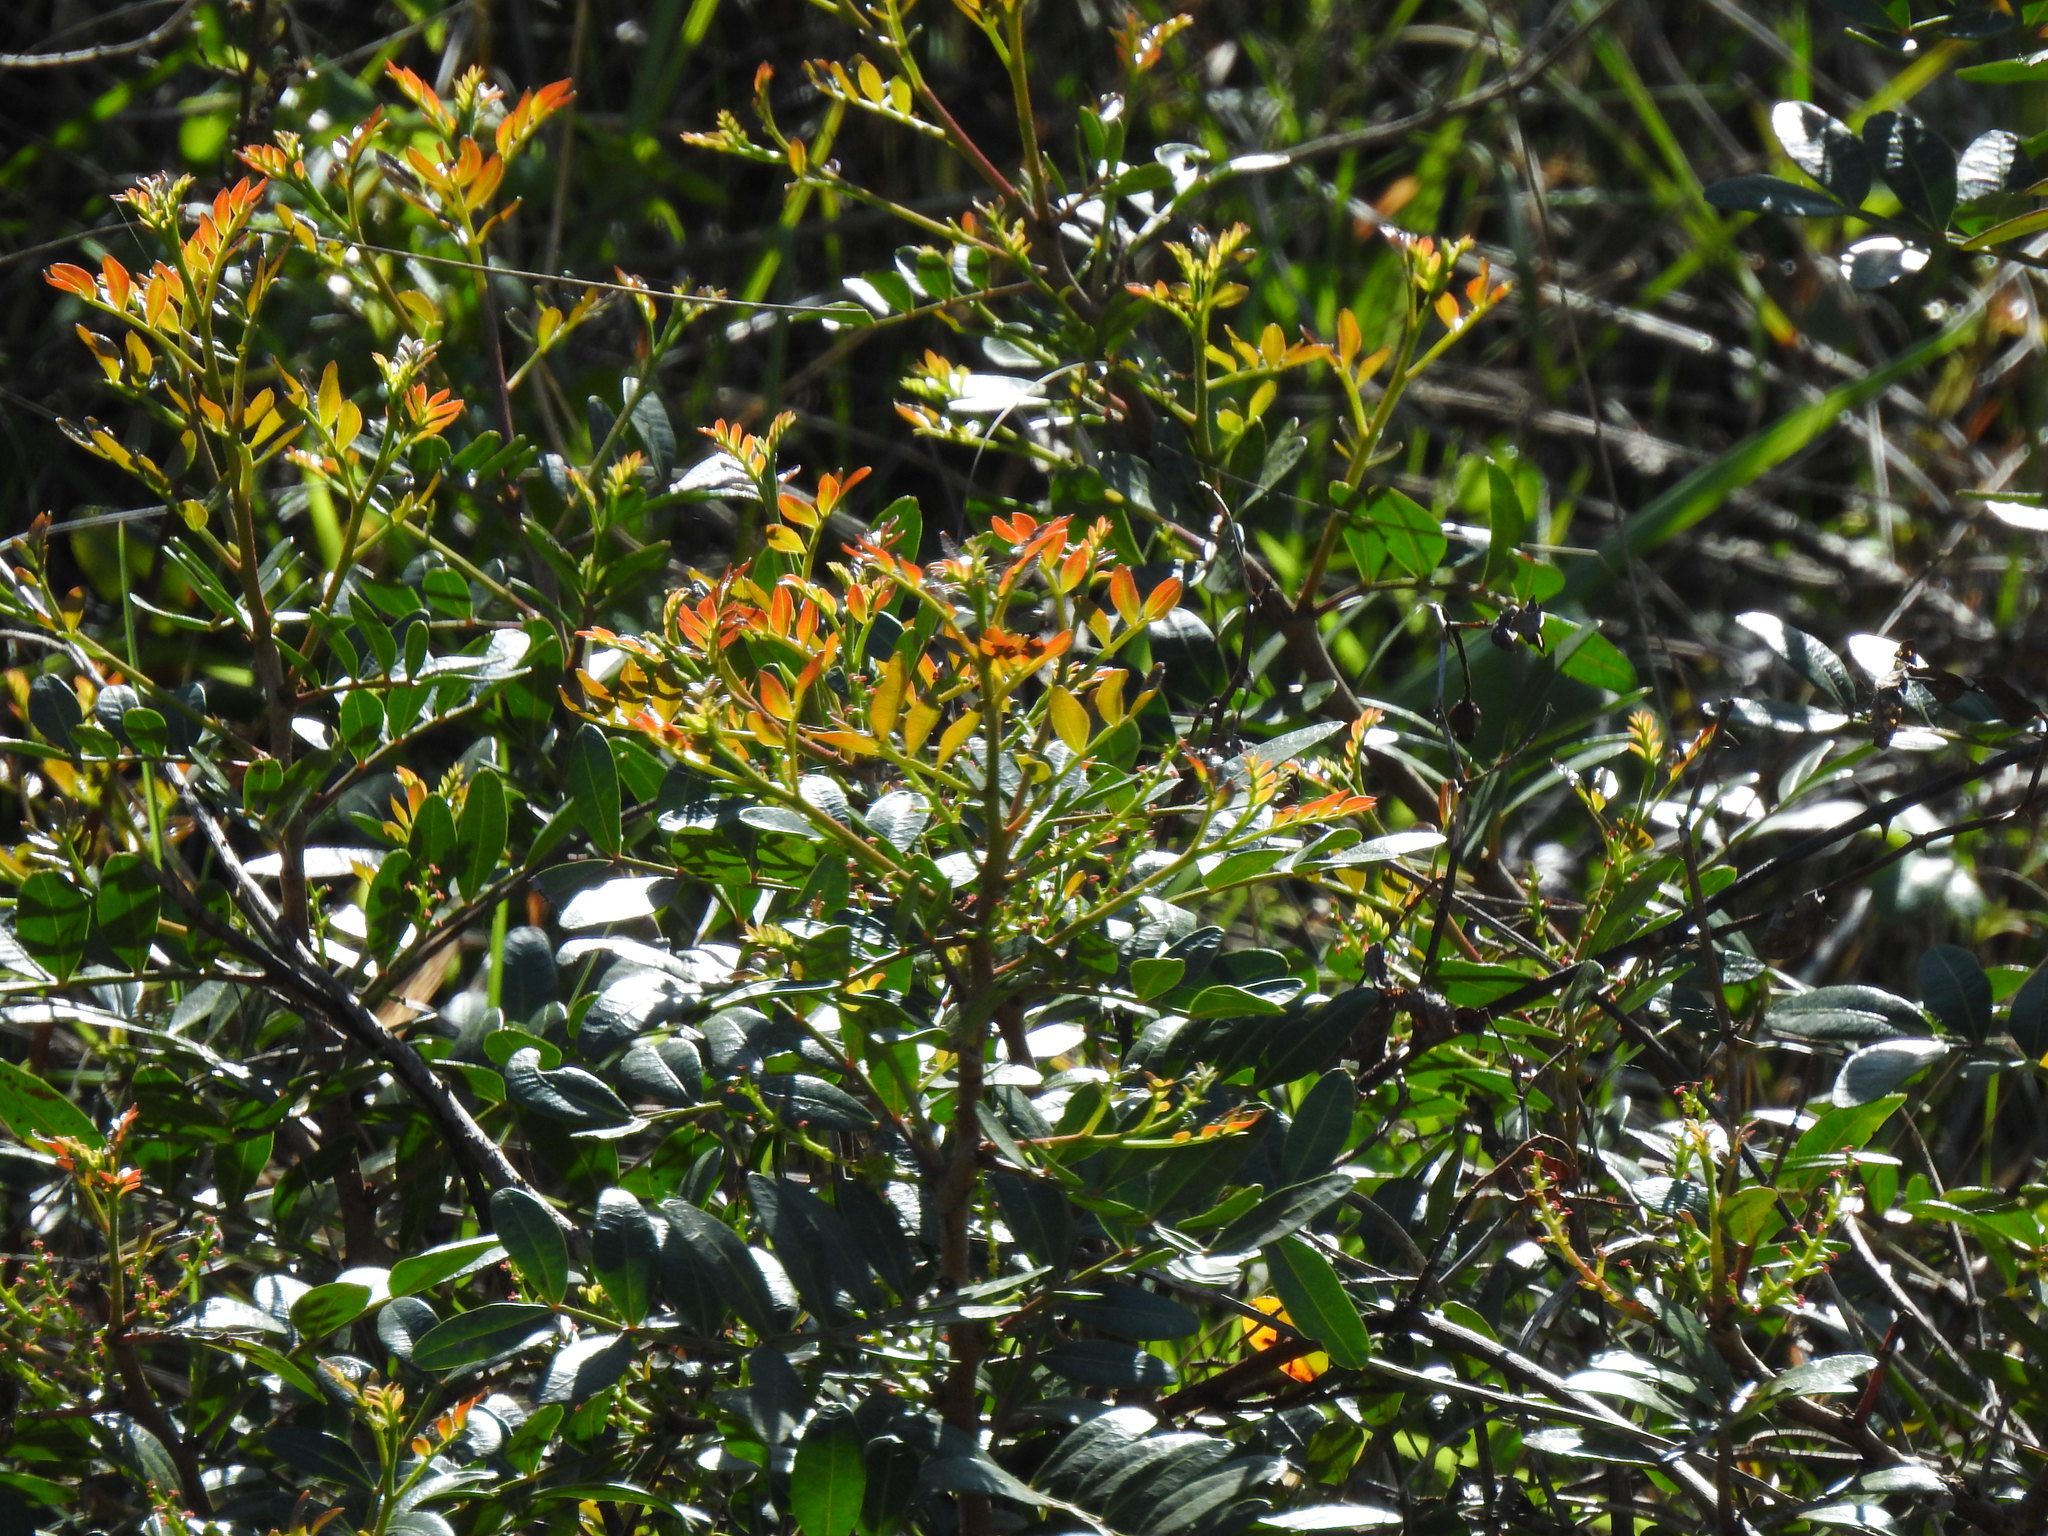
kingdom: Plantae
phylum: Tracheophyta
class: Magnoliopsida
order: Sapindales
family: Anacardiaceae
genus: Pistacia
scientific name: Pistacia lentiscus
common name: Lentisk
